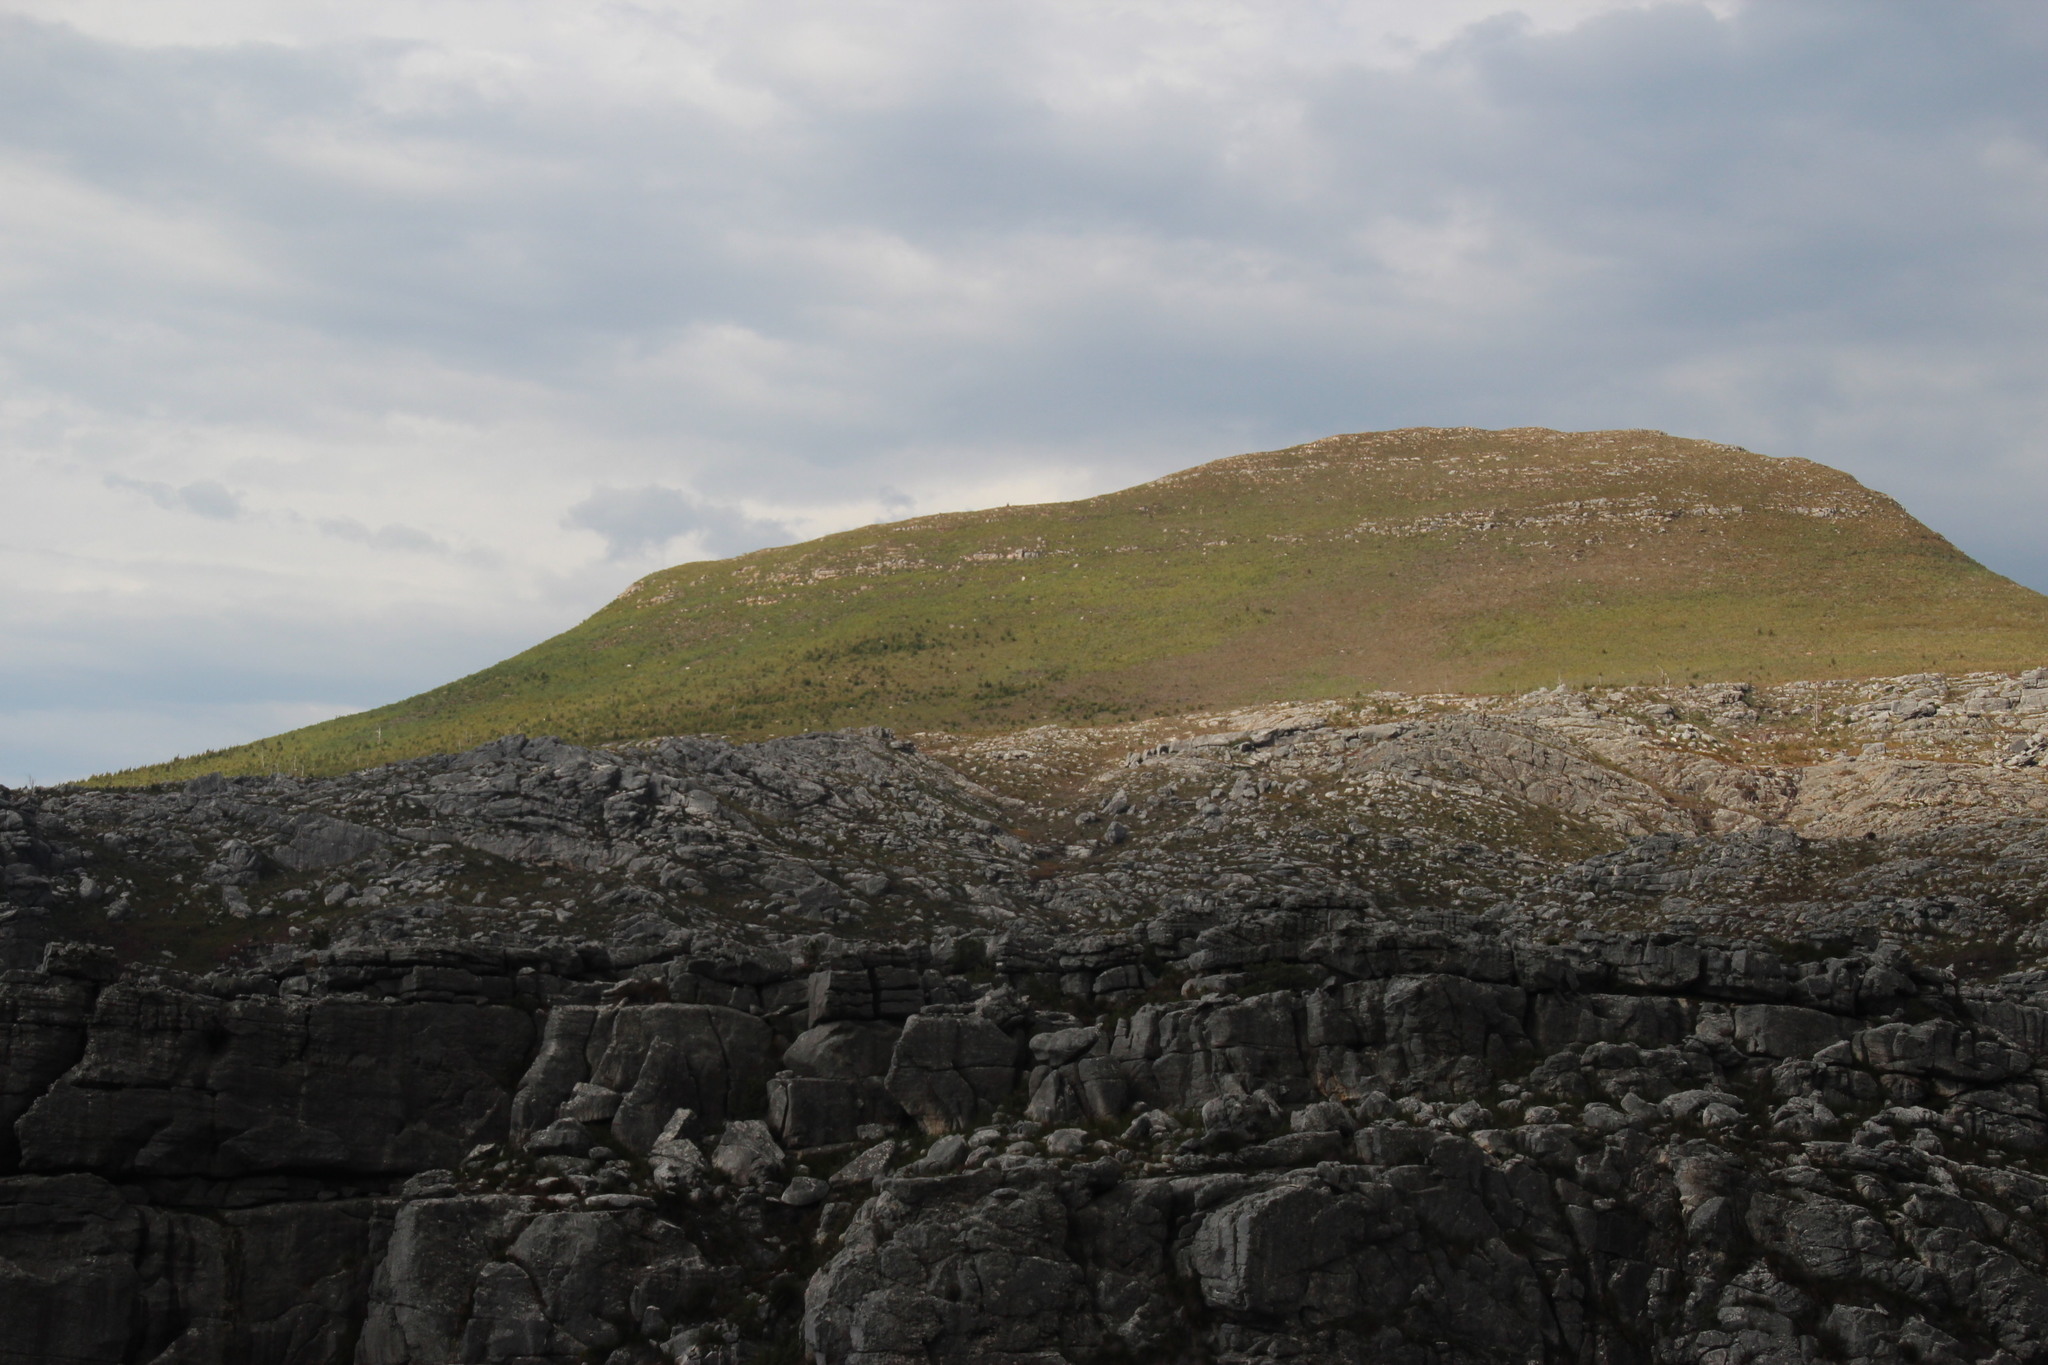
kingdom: Plantae
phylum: Tracheophyta
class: Magnoliopsida
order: Proteales
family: Proteaceae
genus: Hakea
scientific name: Hakea sericea
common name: Needle bush
